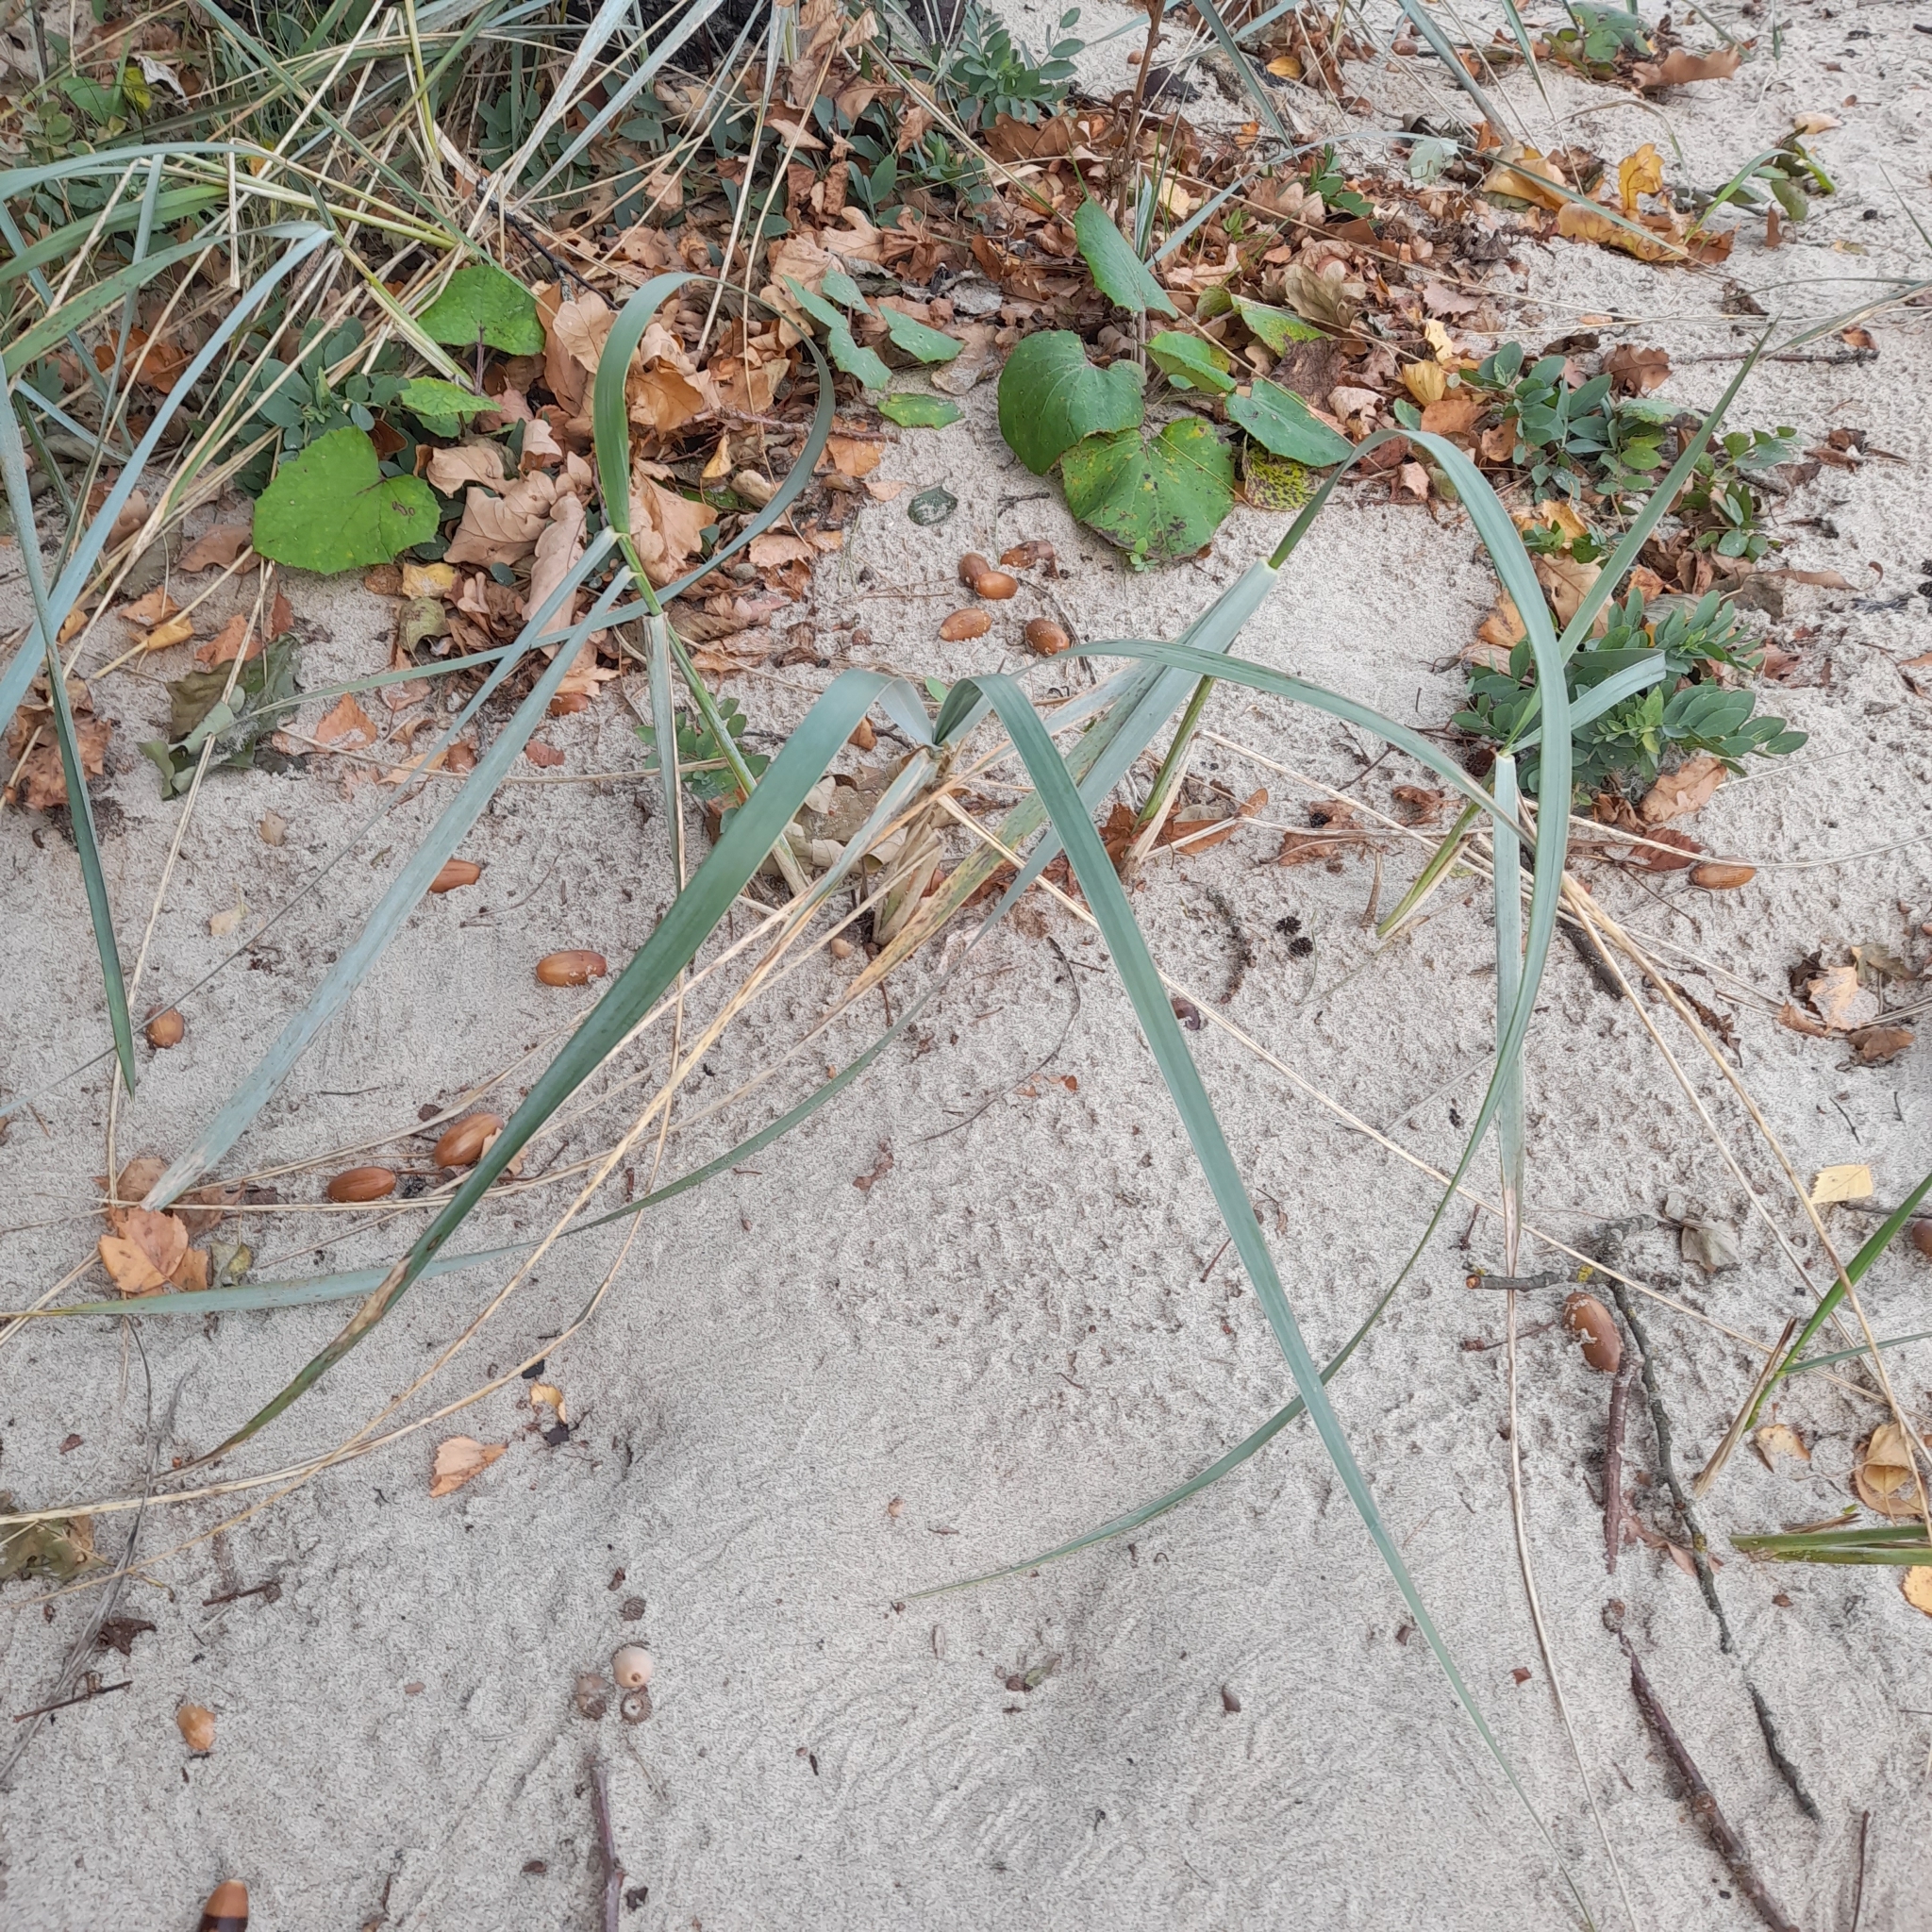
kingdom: Plantae
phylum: Tracheophyta
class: Liliopsida
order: Poales
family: Poaceae
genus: Leymus
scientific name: Leymus arenarius
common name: Lyme-grass
